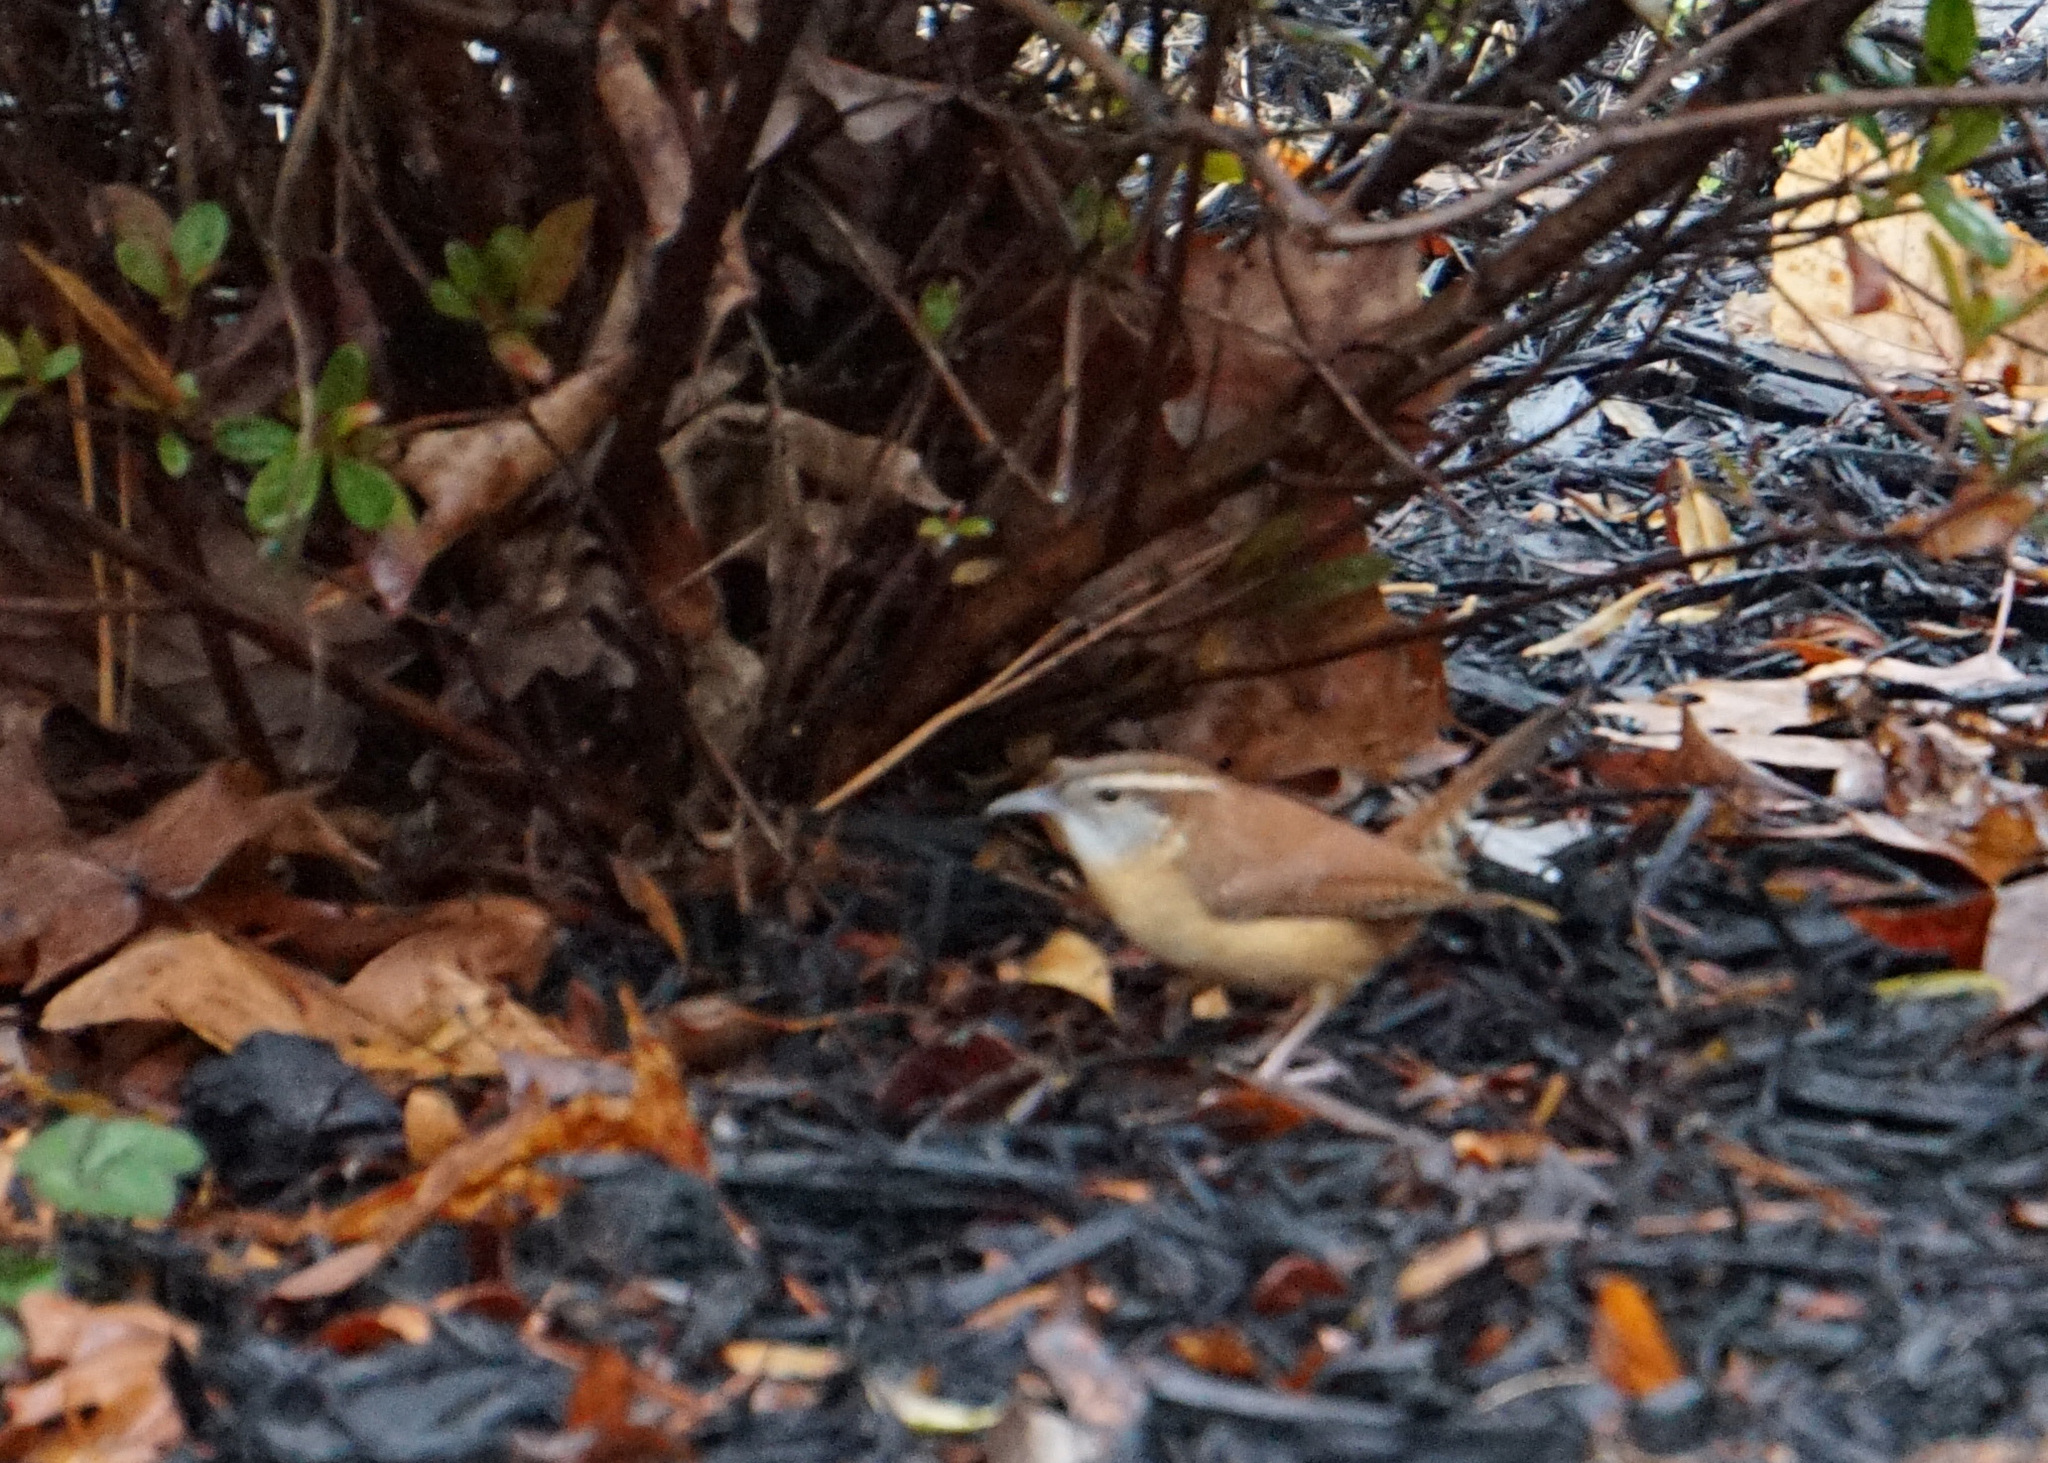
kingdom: Animalia
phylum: Chordata
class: Aves
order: Passeriformes
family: Troglodytidae
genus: Thryothorus
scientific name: Thryothorus ludovicianus
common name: Carolina wren
